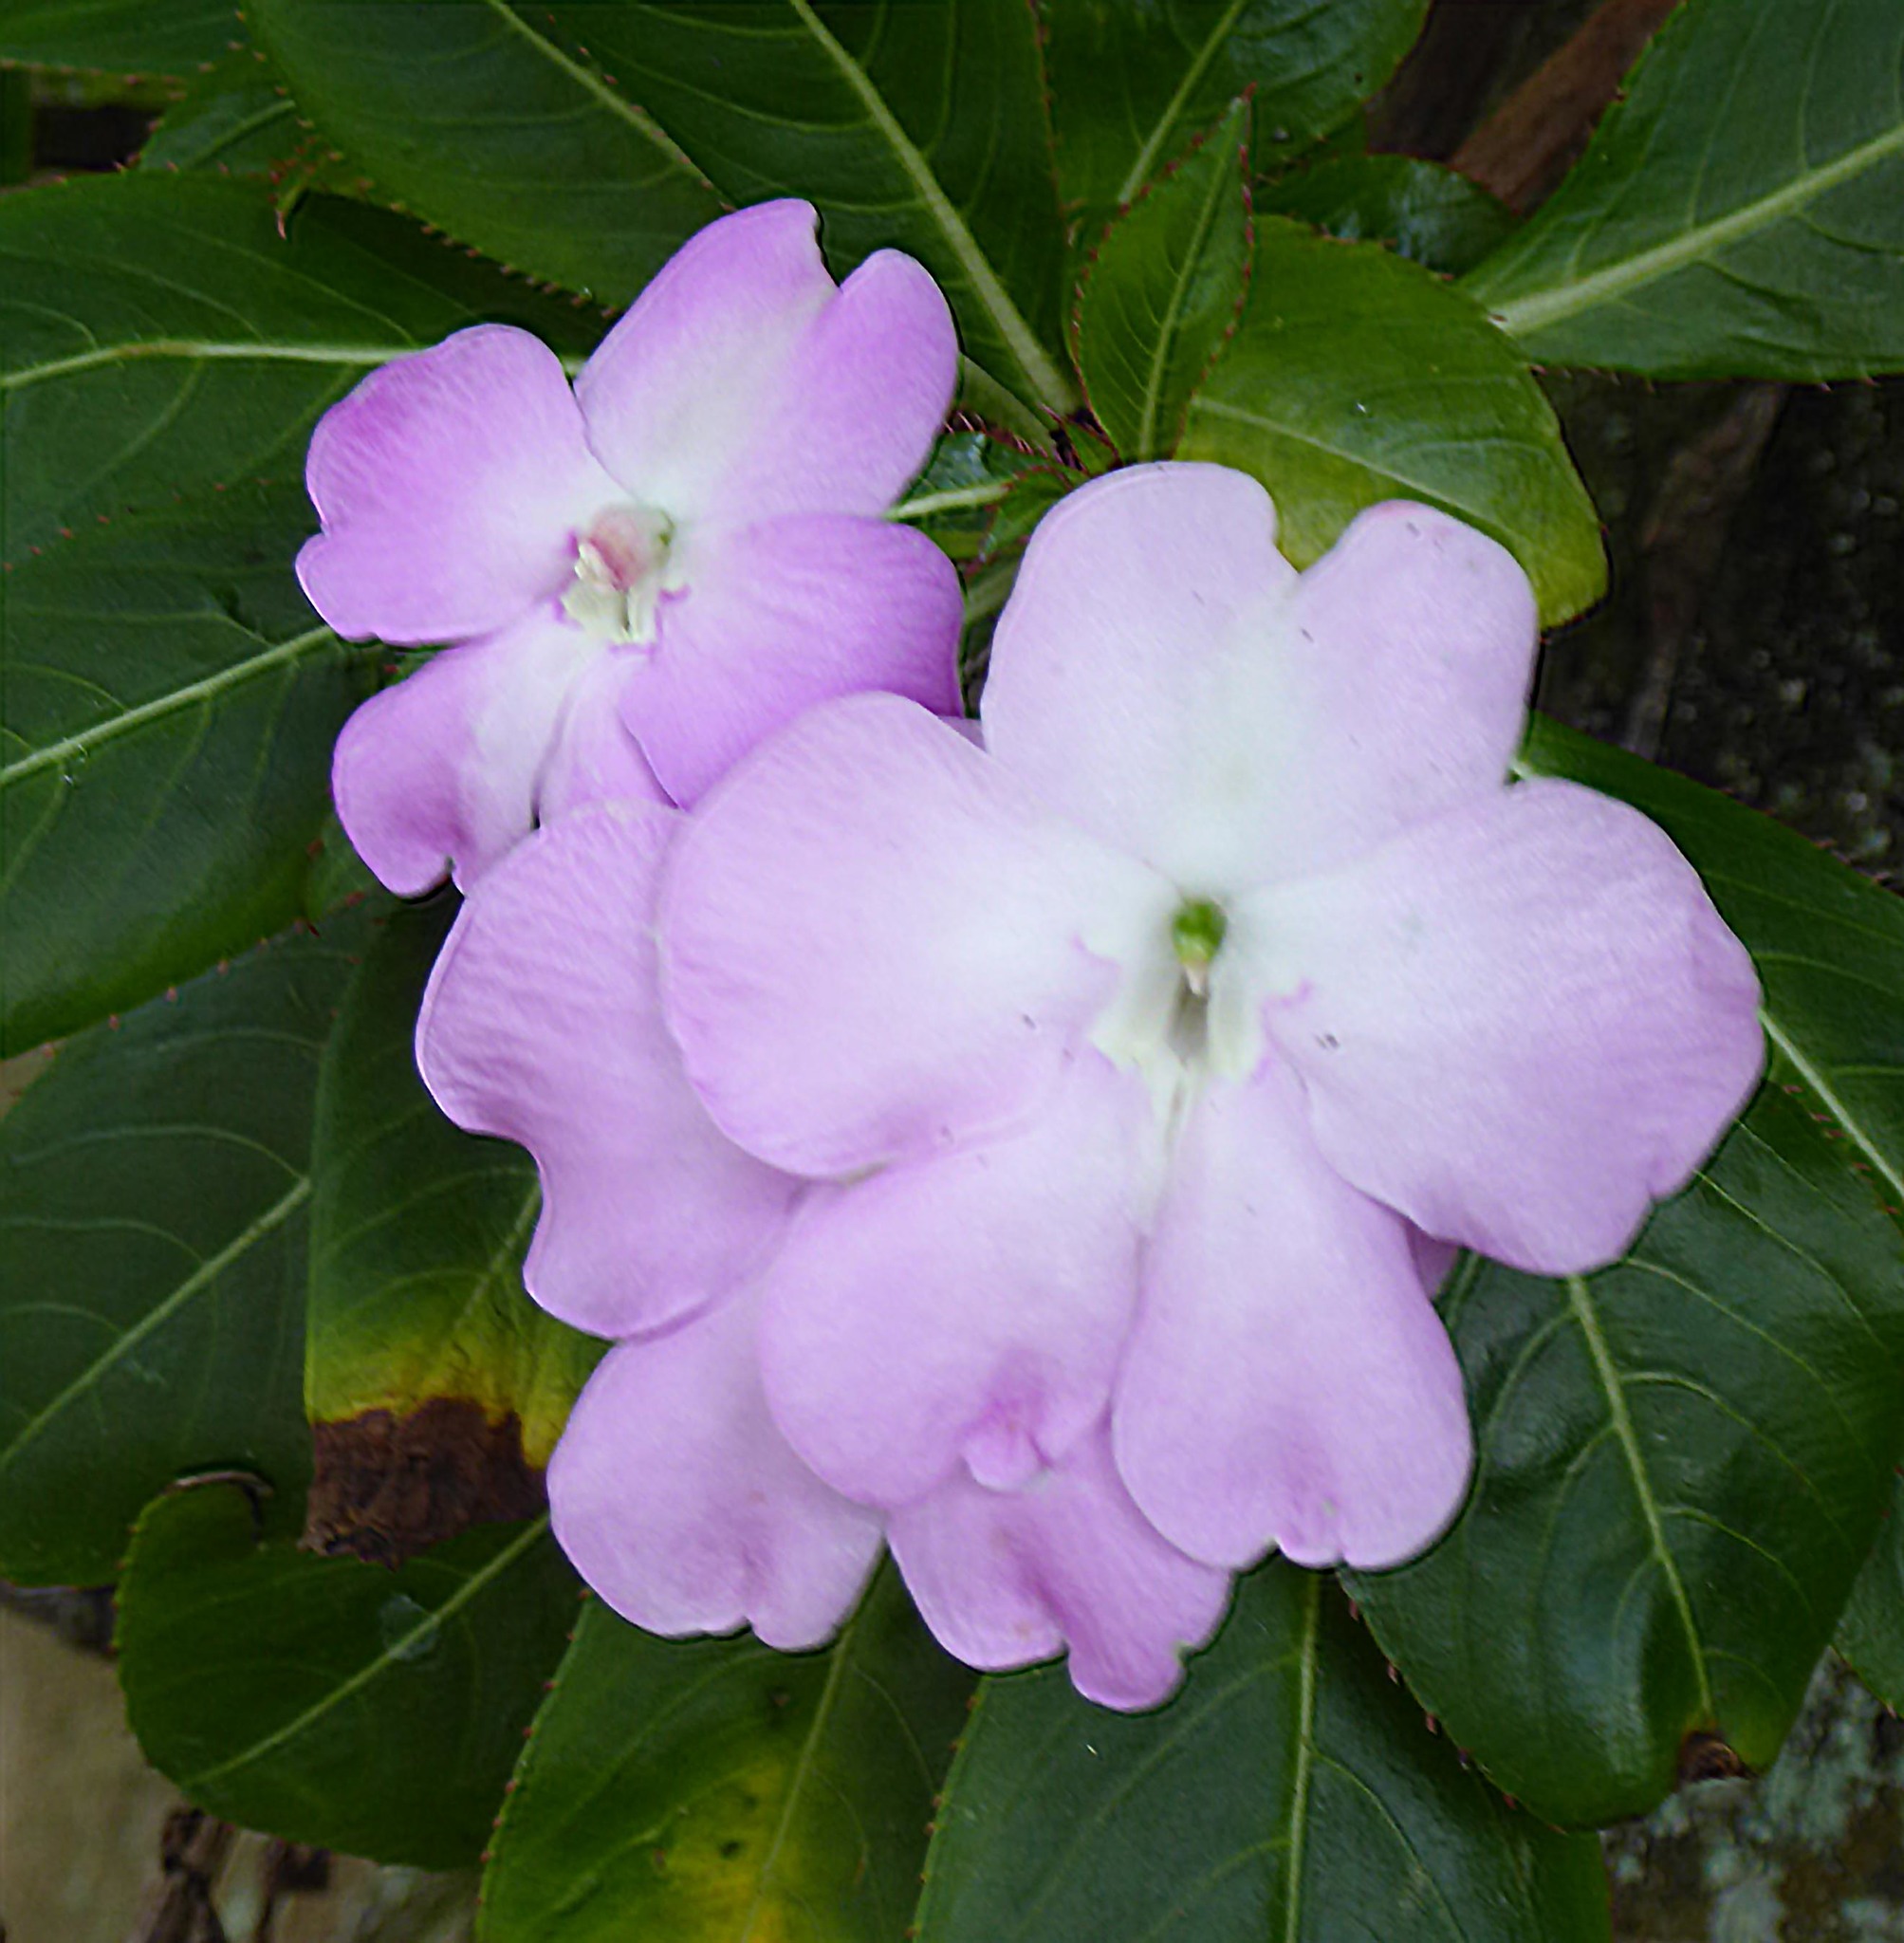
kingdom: Plantae
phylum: Tracheophyta
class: Magnoliopsida
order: Ericales
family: Balsaminaceae
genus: Impatiens
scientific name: Impatiens sodenii
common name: Oliver's touch-me-not
